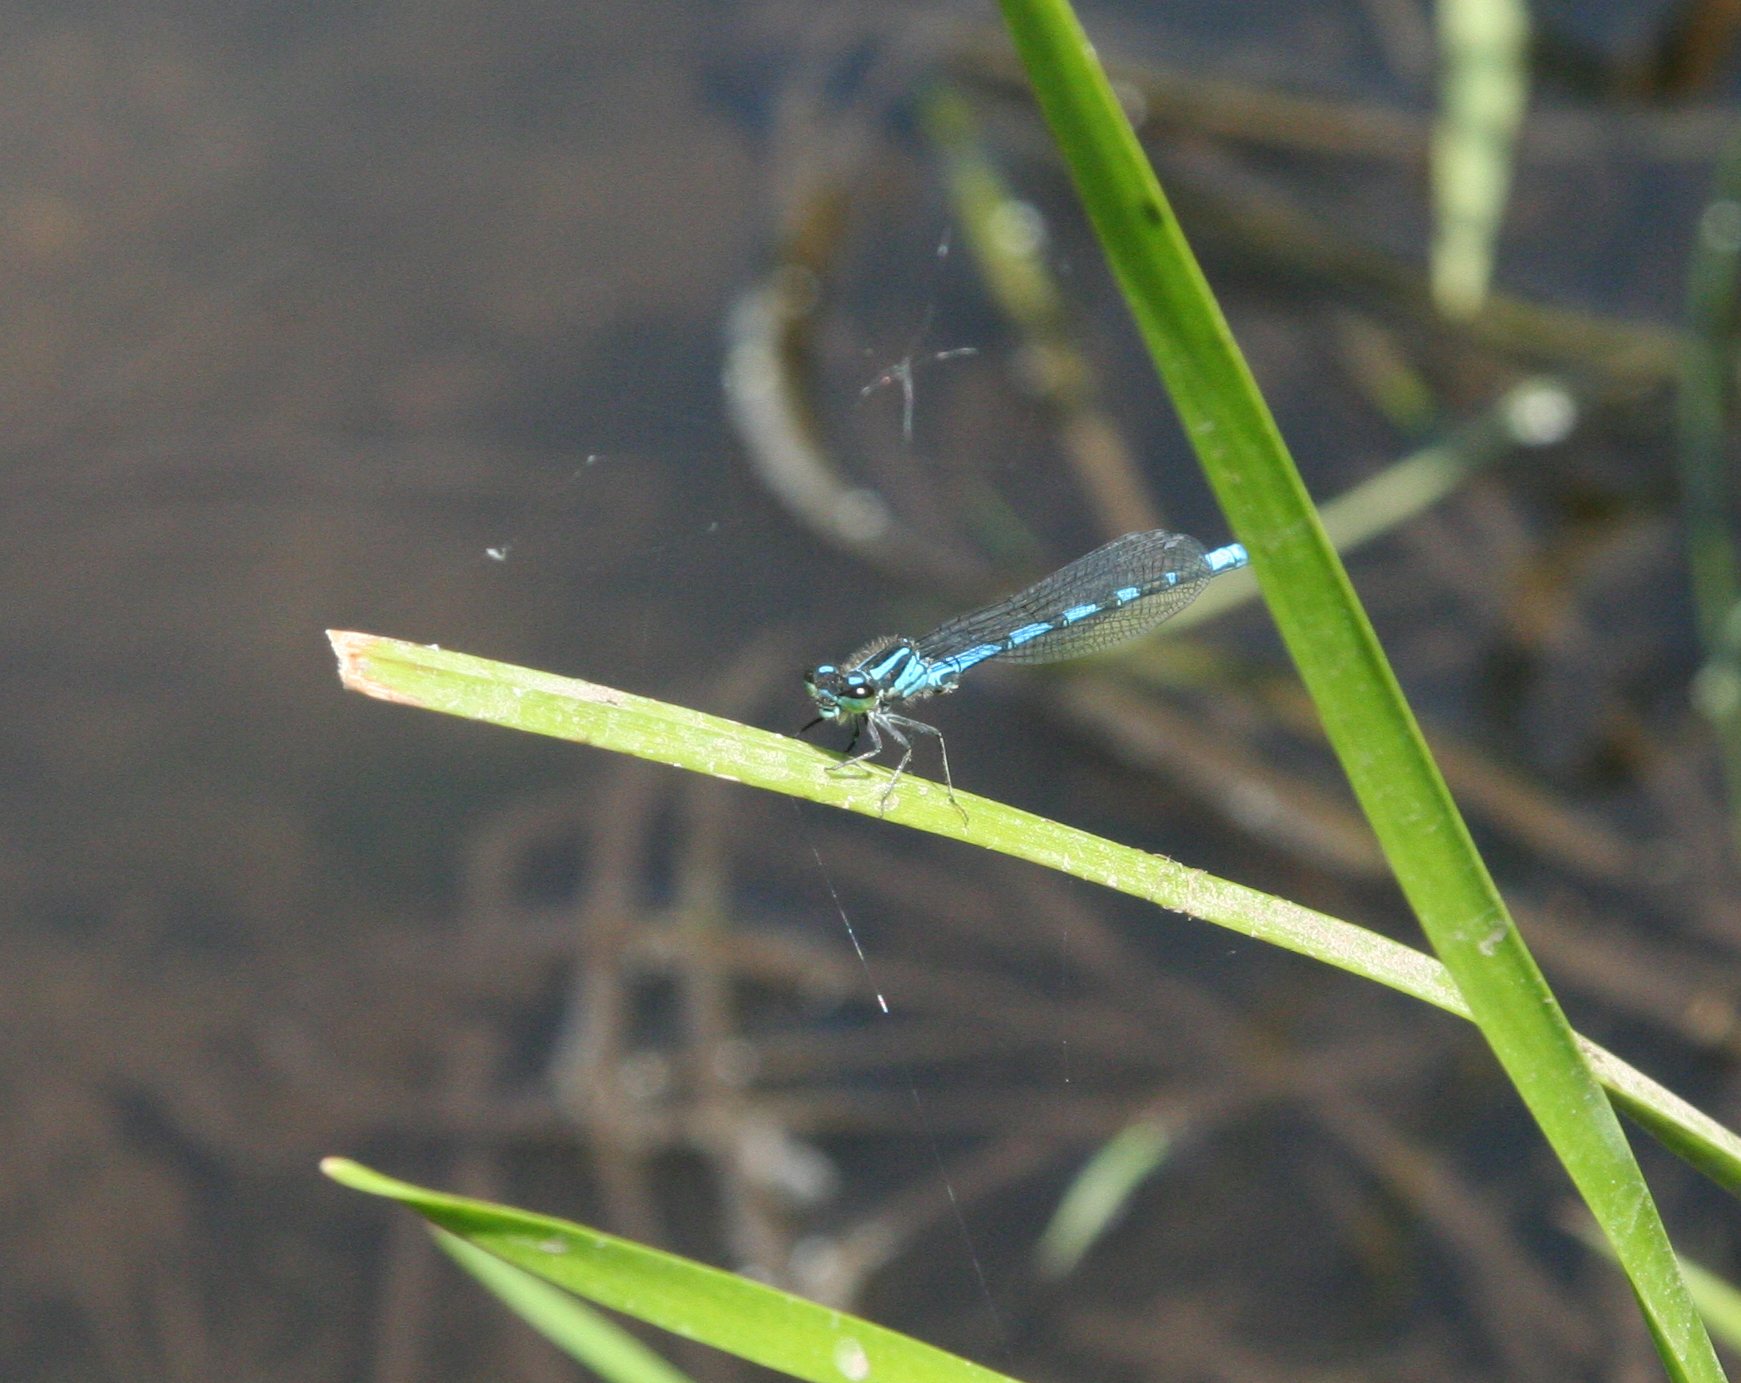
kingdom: Animalia
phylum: Arthropoda
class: Insecta
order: Odonata
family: Coenagrionidae
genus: Coenagrion
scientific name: Coenagrion hylas
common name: Frey's damselfly
